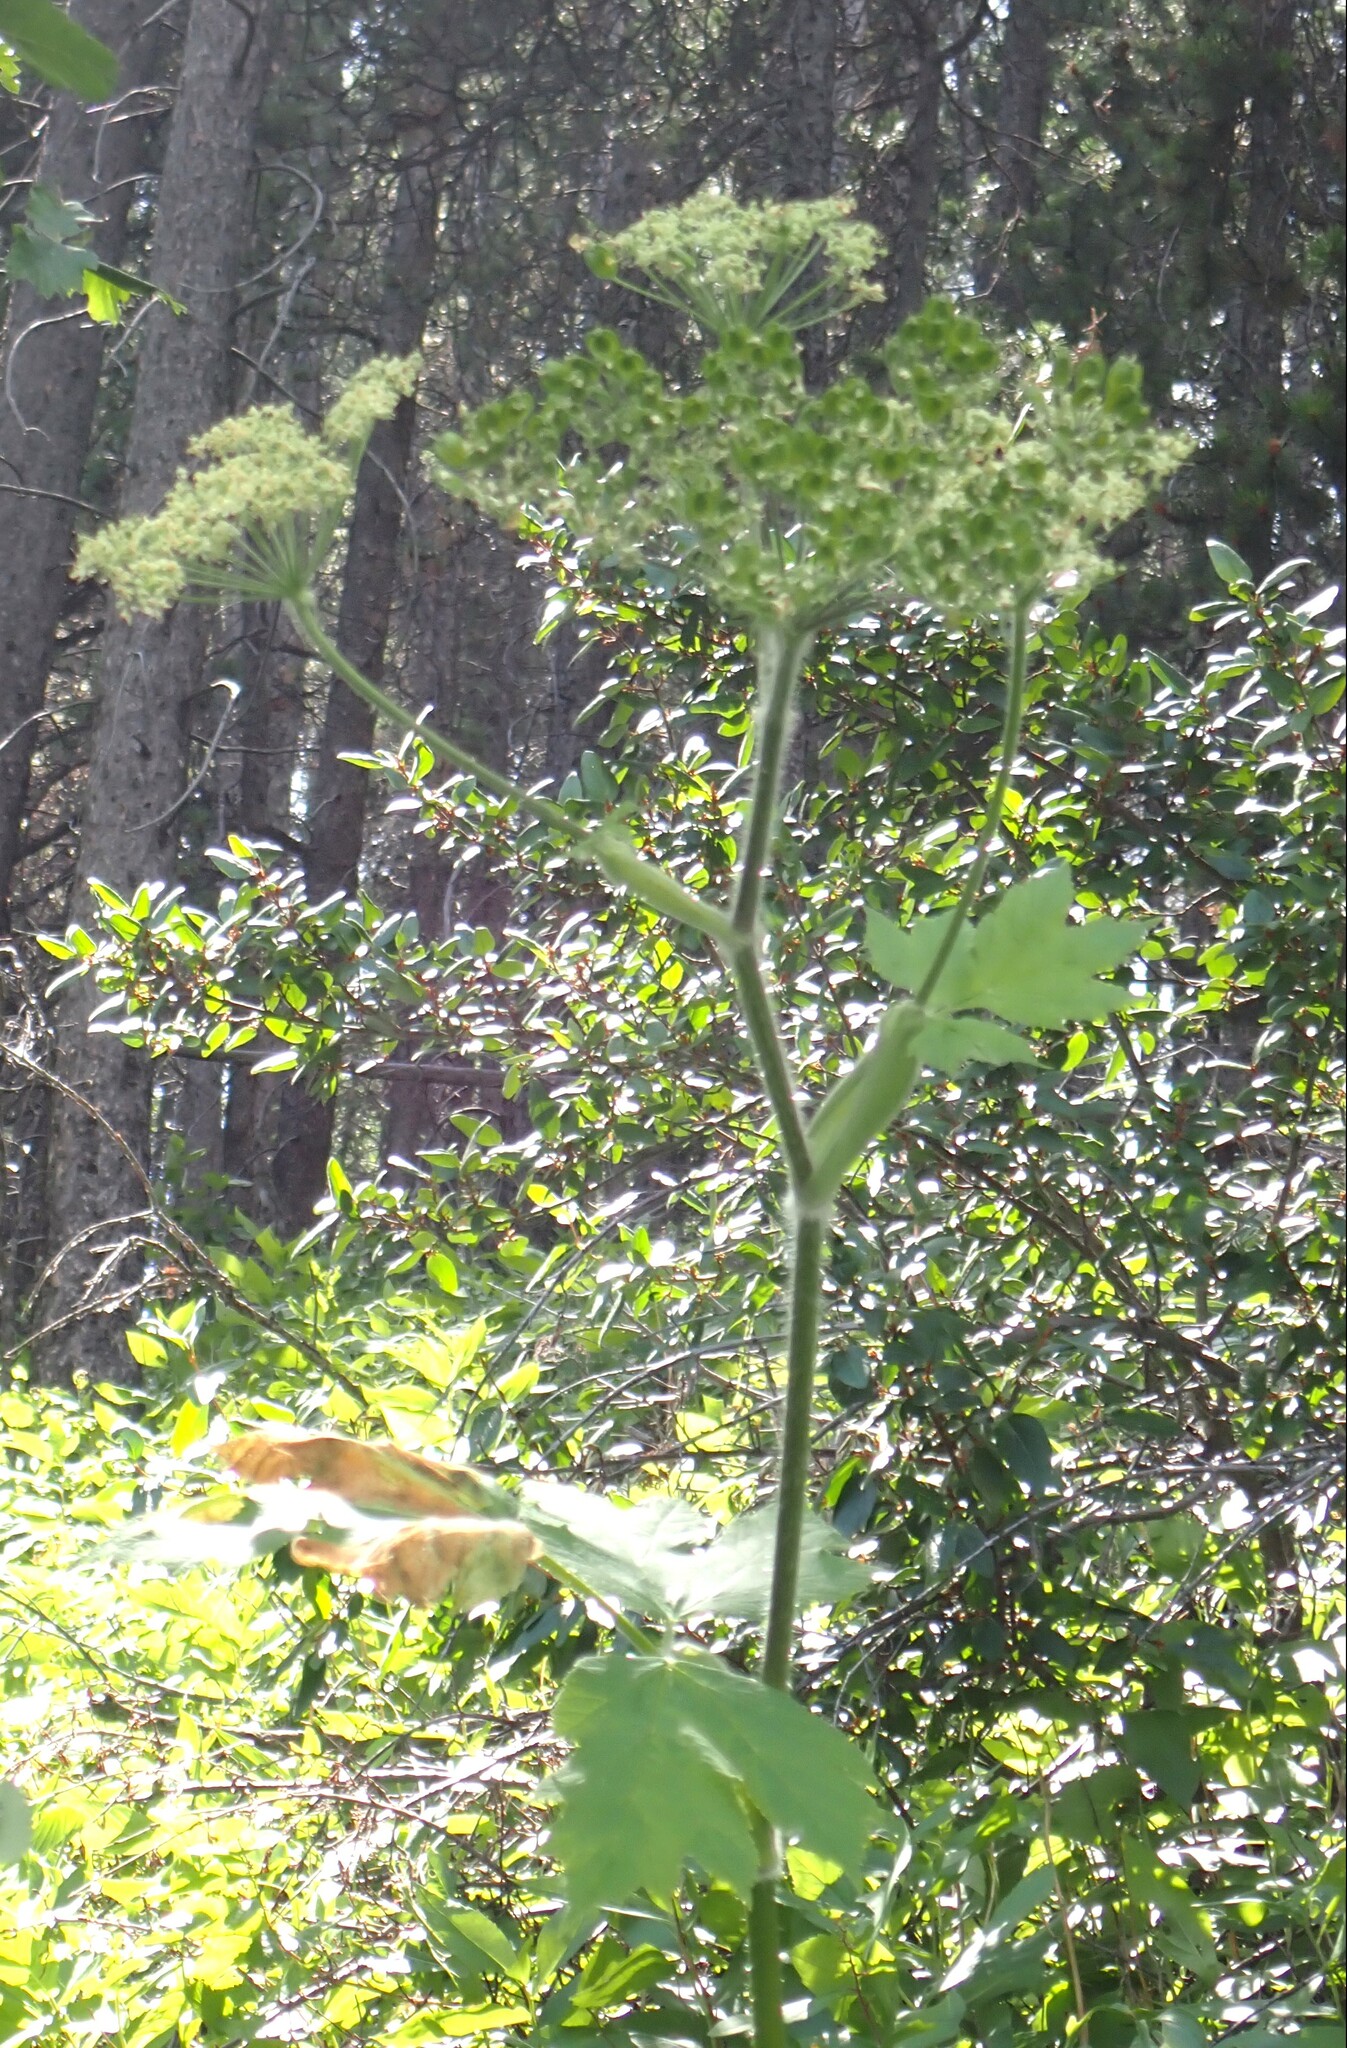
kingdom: Plantae
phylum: Tracheophyta
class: Magnoliopsida
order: Apiales
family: Apiaceae
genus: Heracleum
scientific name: Heracleum maximum
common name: American cow parsnip
